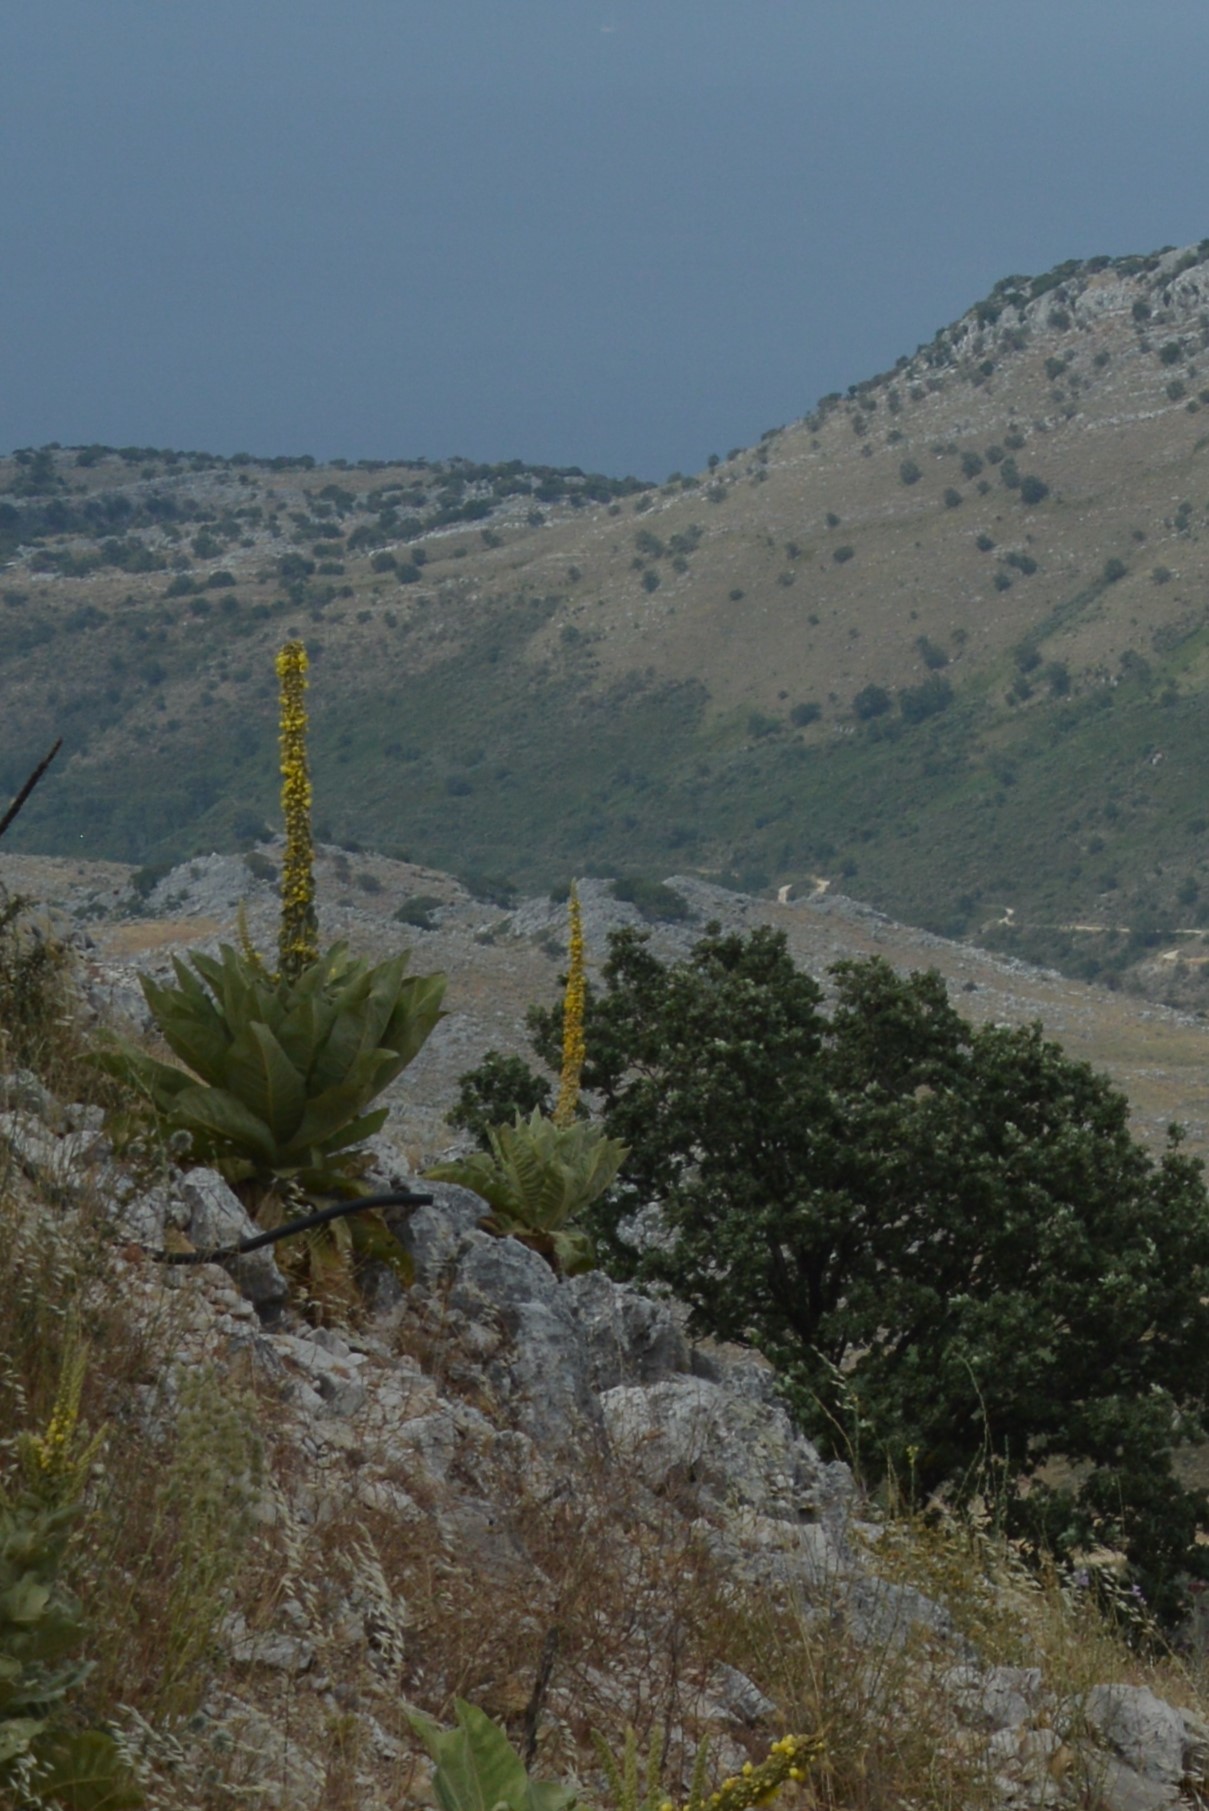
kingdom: Plantae
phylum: Tracheophyta
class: Magnoliopsida
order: Lamiales
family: Scrophulariaceae
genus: Verbascum
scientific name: Verbascum macrurum
